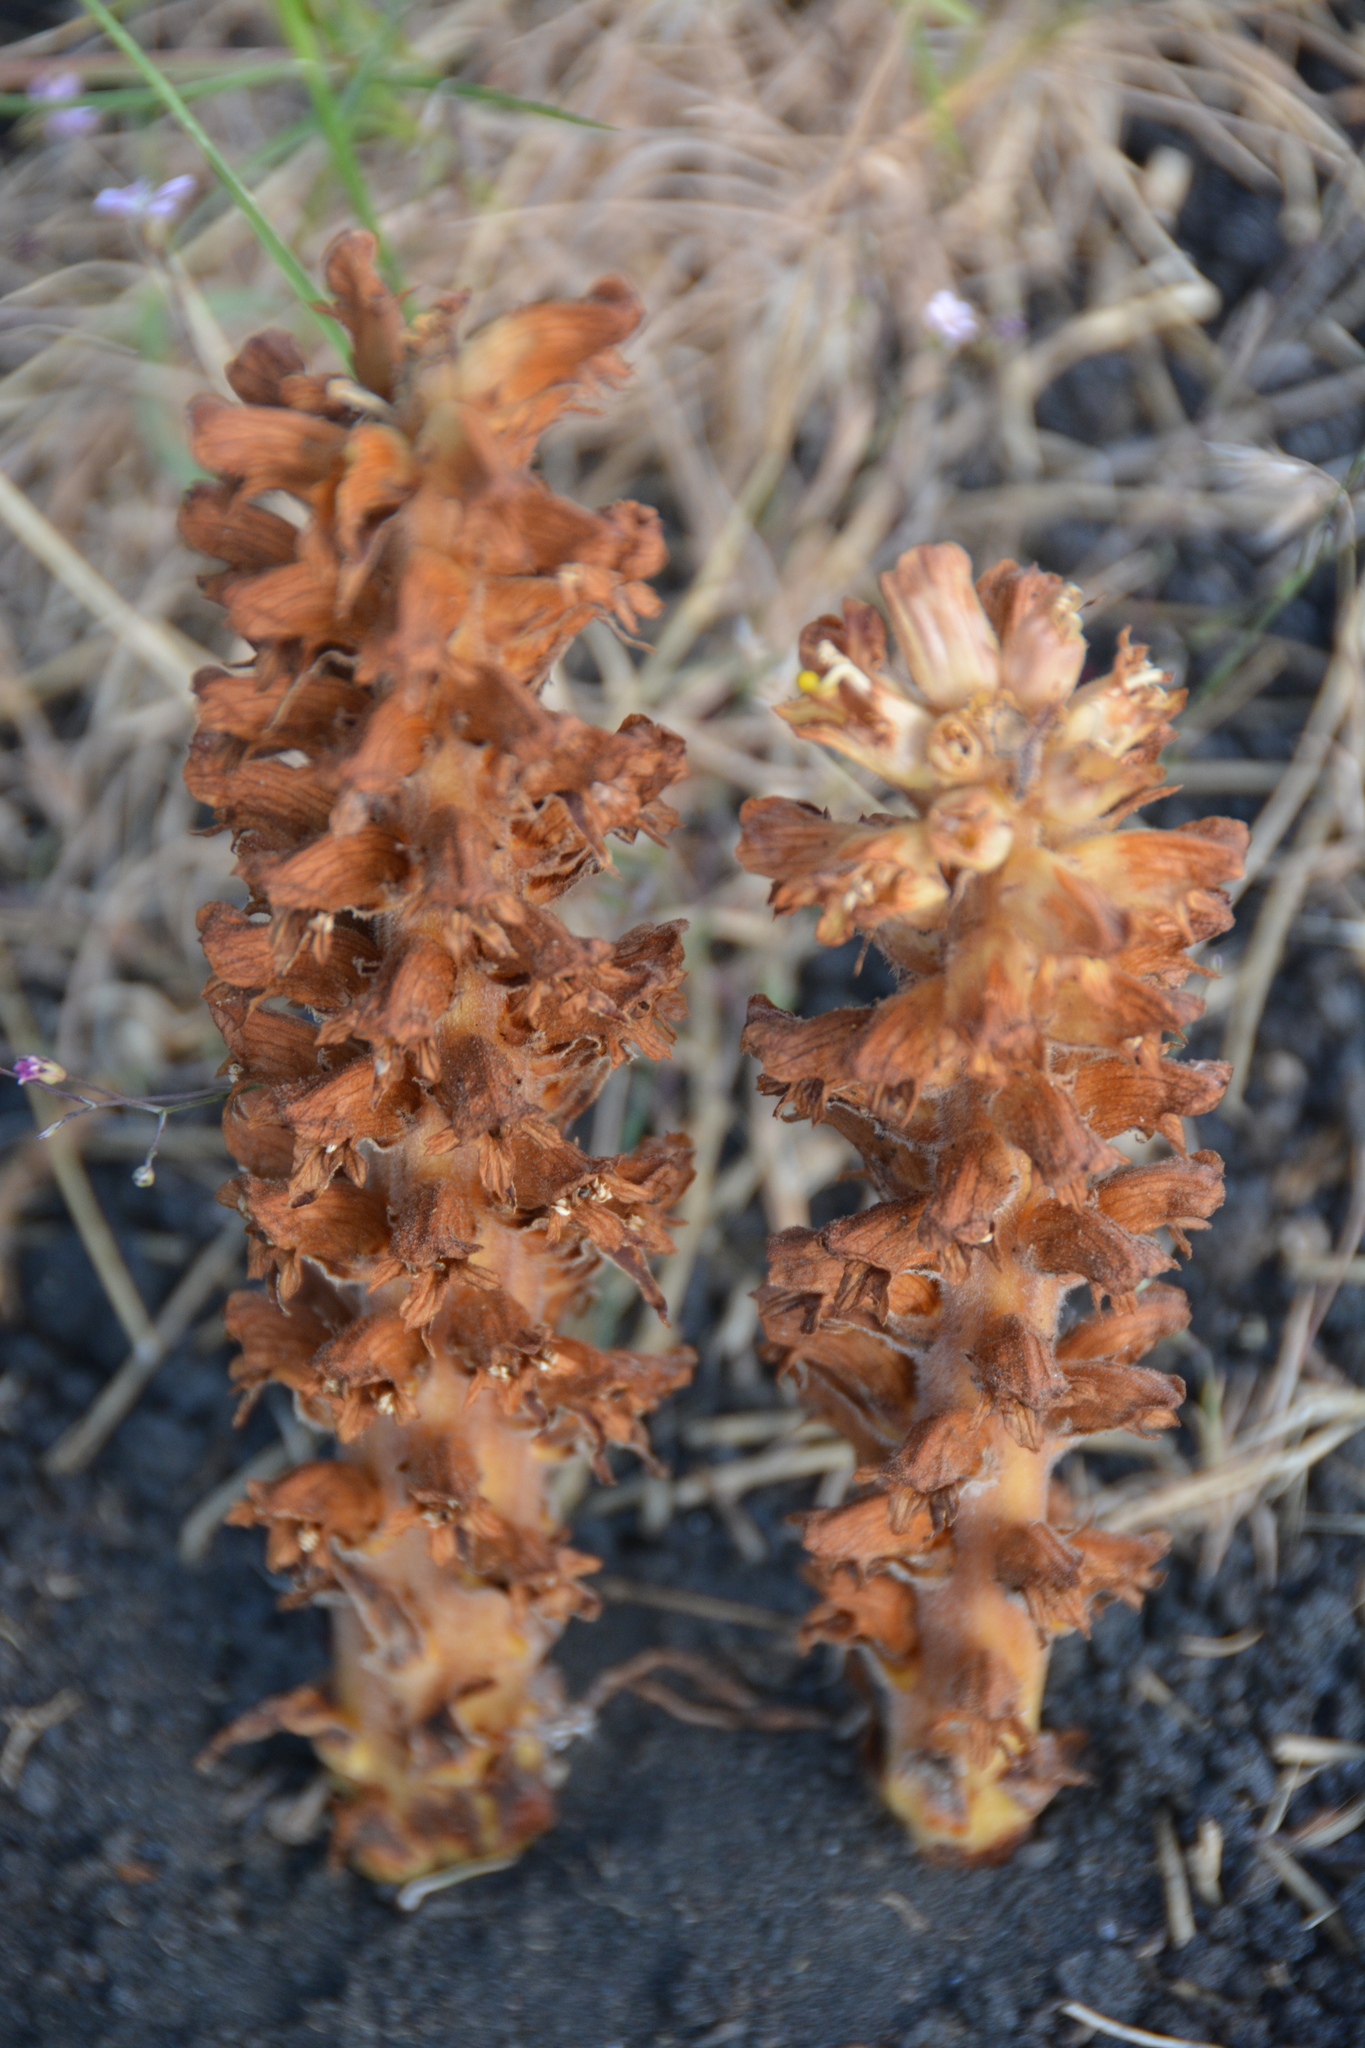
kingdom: Plantae
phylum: Tracheophyta
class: Magnoliopsida
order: Lamiales
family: Orobanchaceae
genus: Orobanche
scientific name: Orobanche rapum-genistae
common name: Greater broomrape
